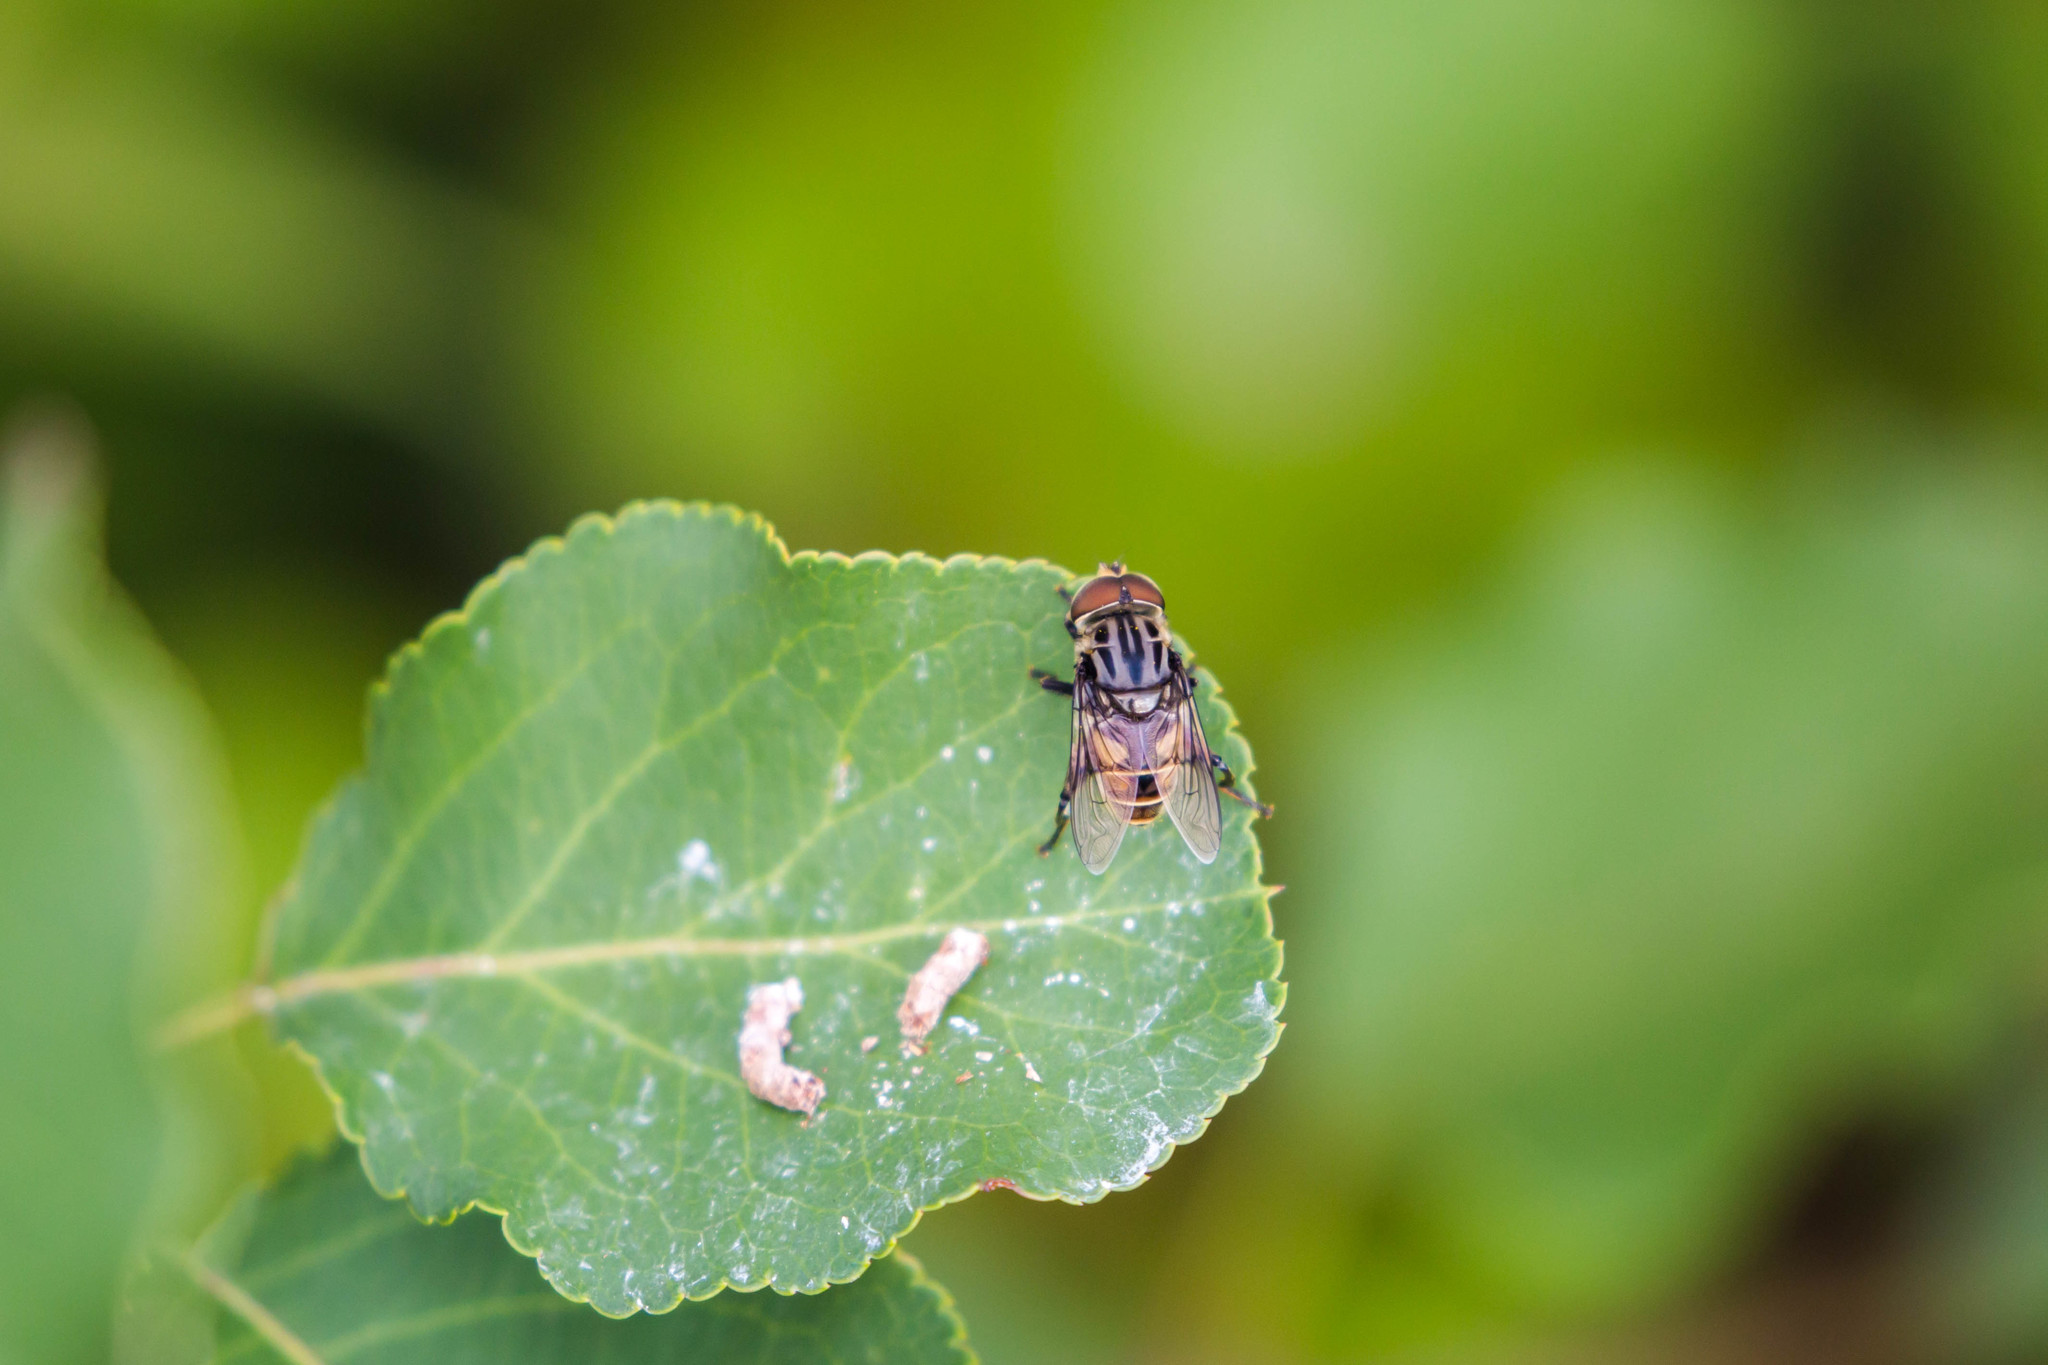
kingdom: Animalia
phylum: Arthropoda
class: Insecta
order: Diptera
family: Syrphidae
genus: Palpada
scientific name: Palpada furcata
